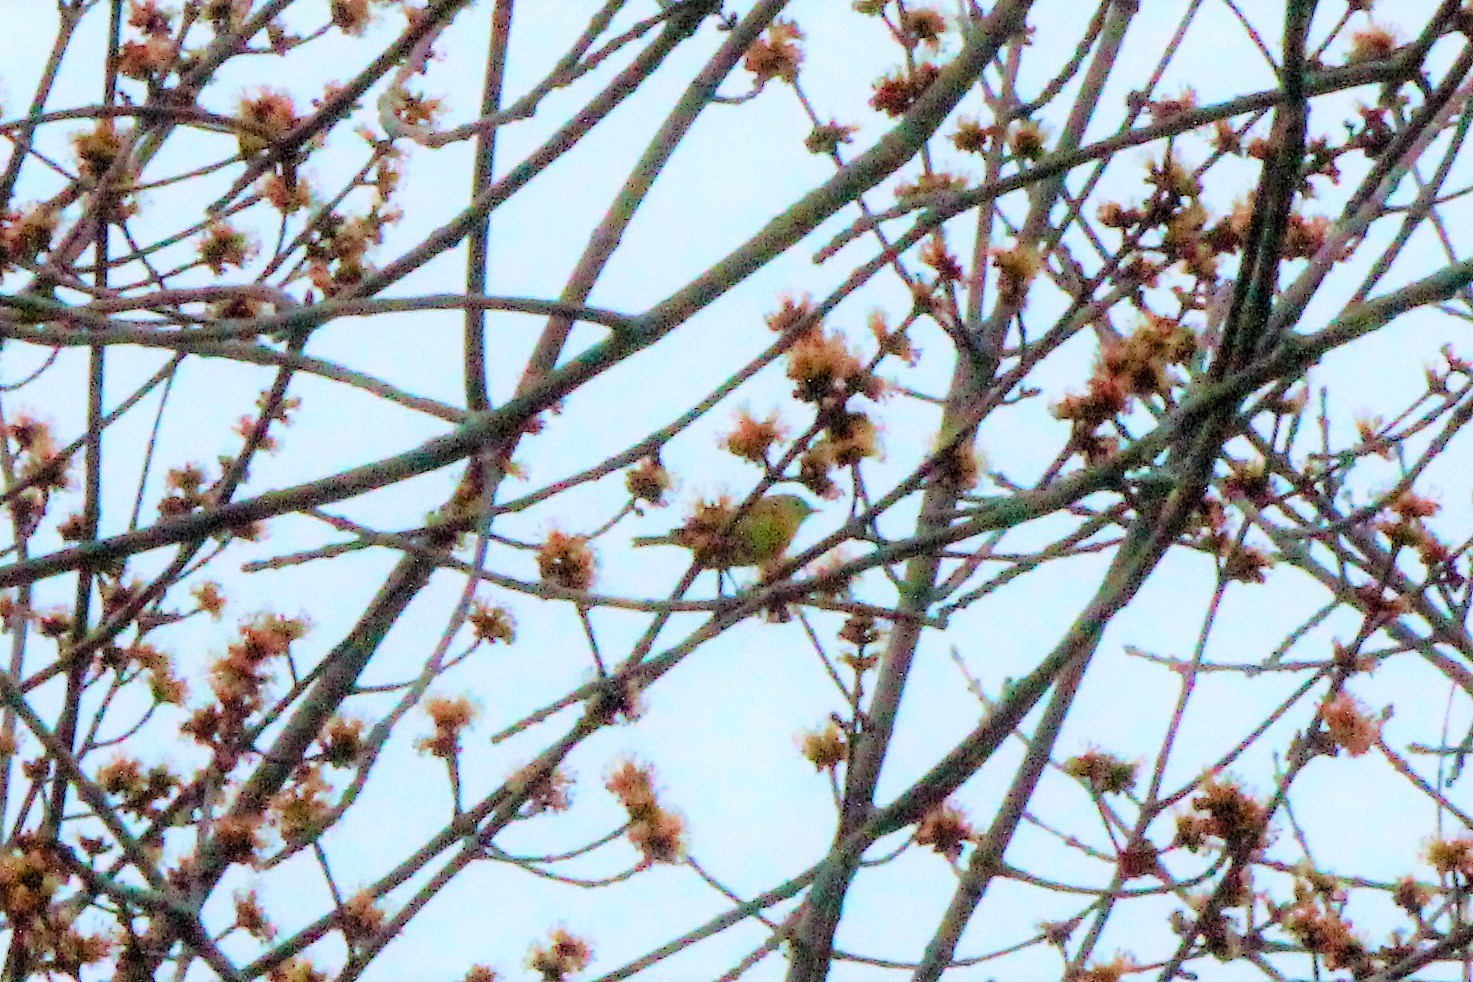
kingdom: Animalia
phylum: Chordata
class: Aves
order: Passeriformes
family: Parulidae
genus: Leiothlypis
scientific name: Leiothlypis ruficapilla
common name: Nashville warbler
